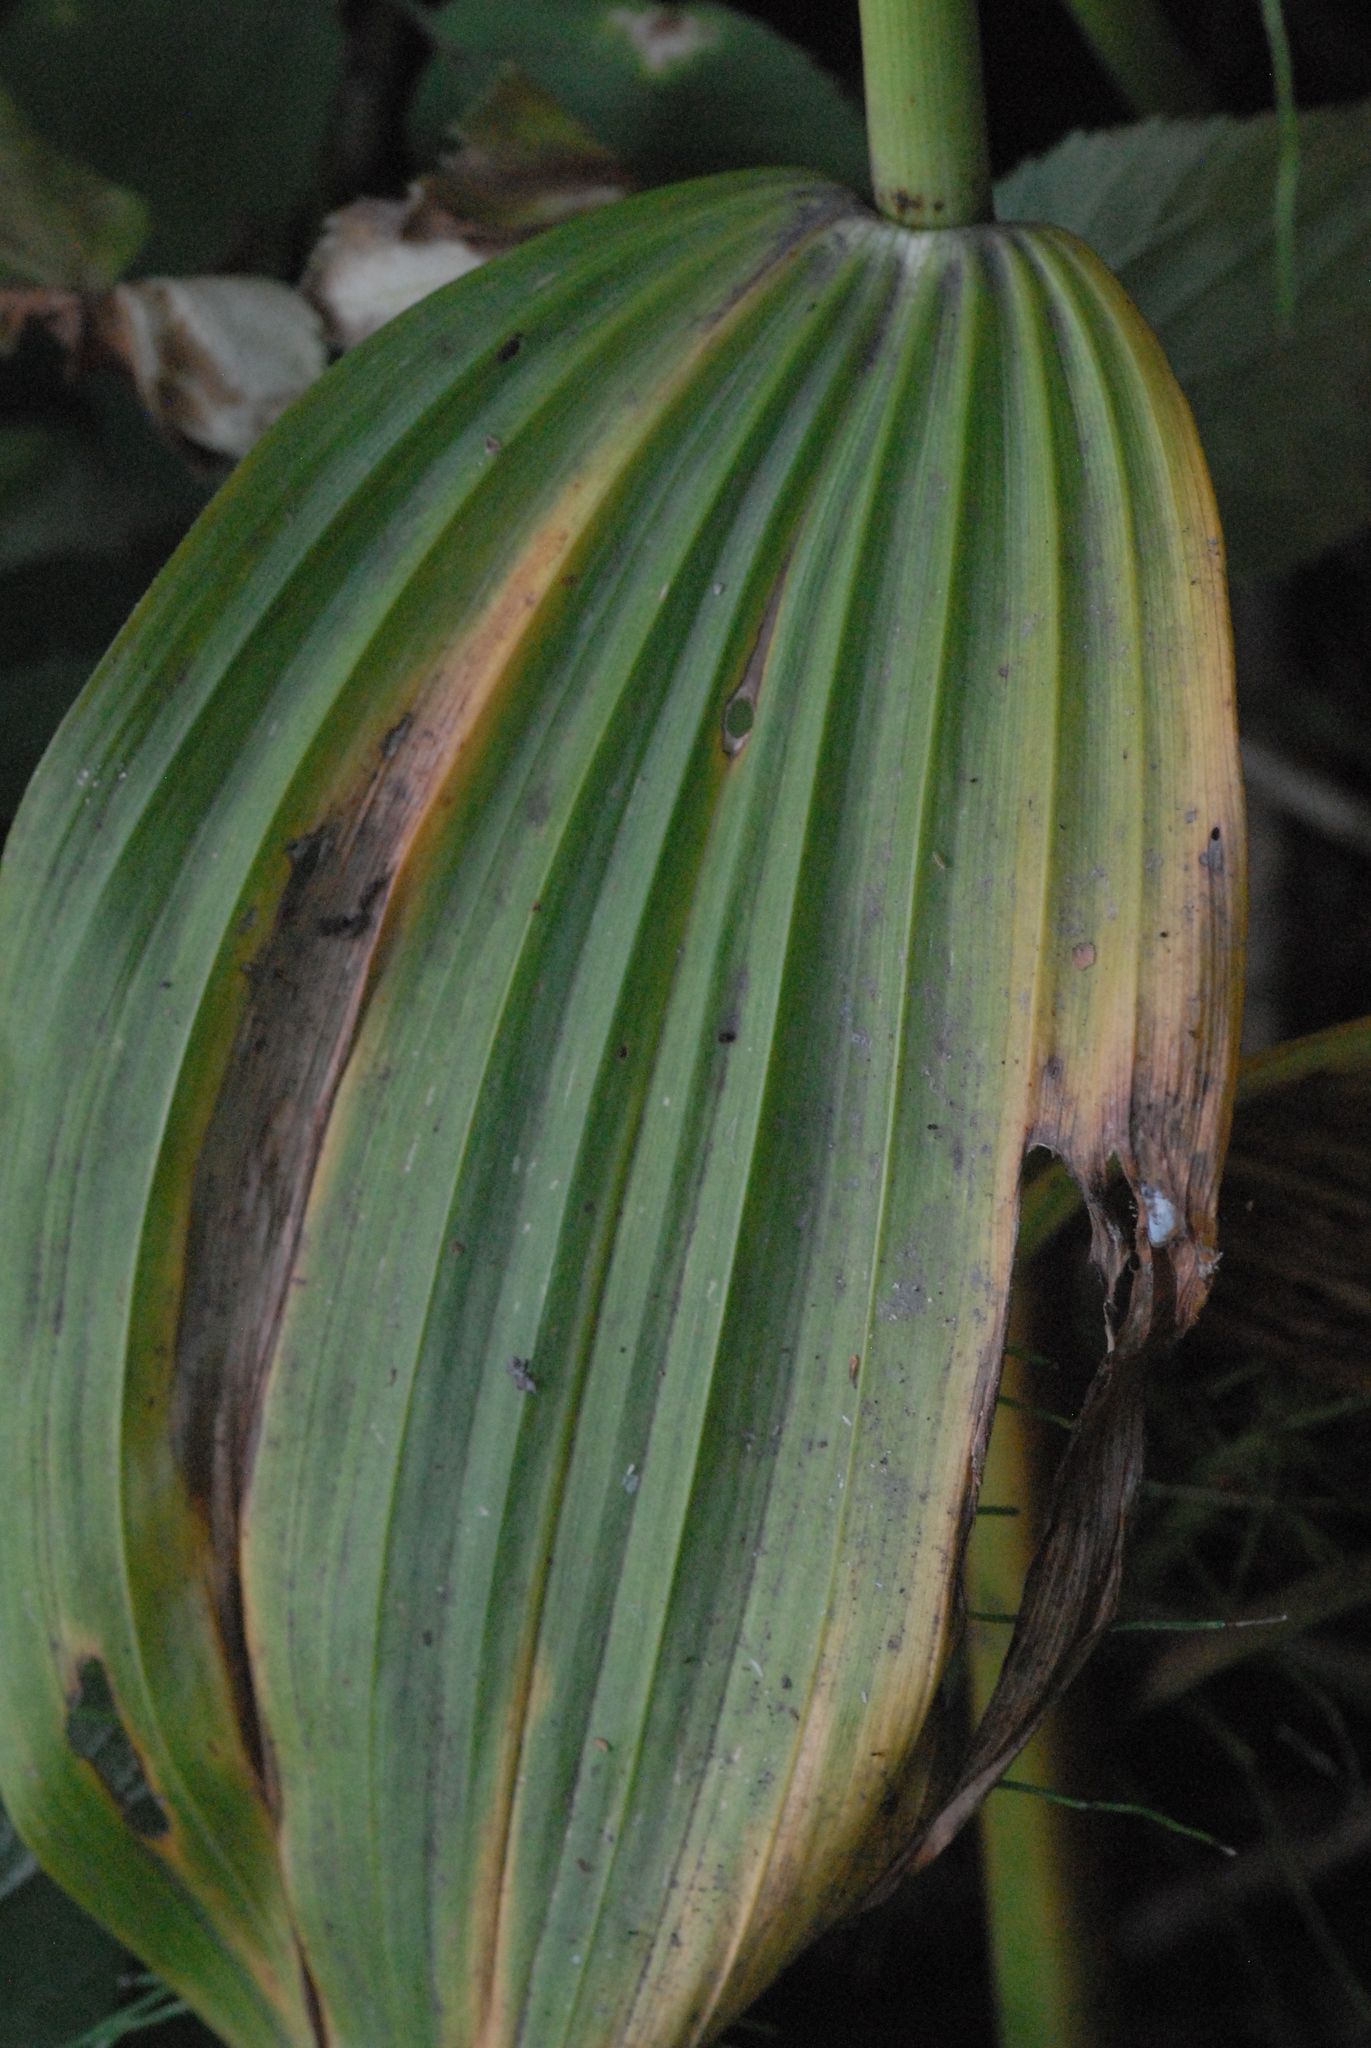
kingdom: Plantae
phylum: Tracheophyta
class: Liliopsida
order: Liliales
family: Melanthiaceae
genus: Veratrum
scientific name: Veratrum lobelianum
